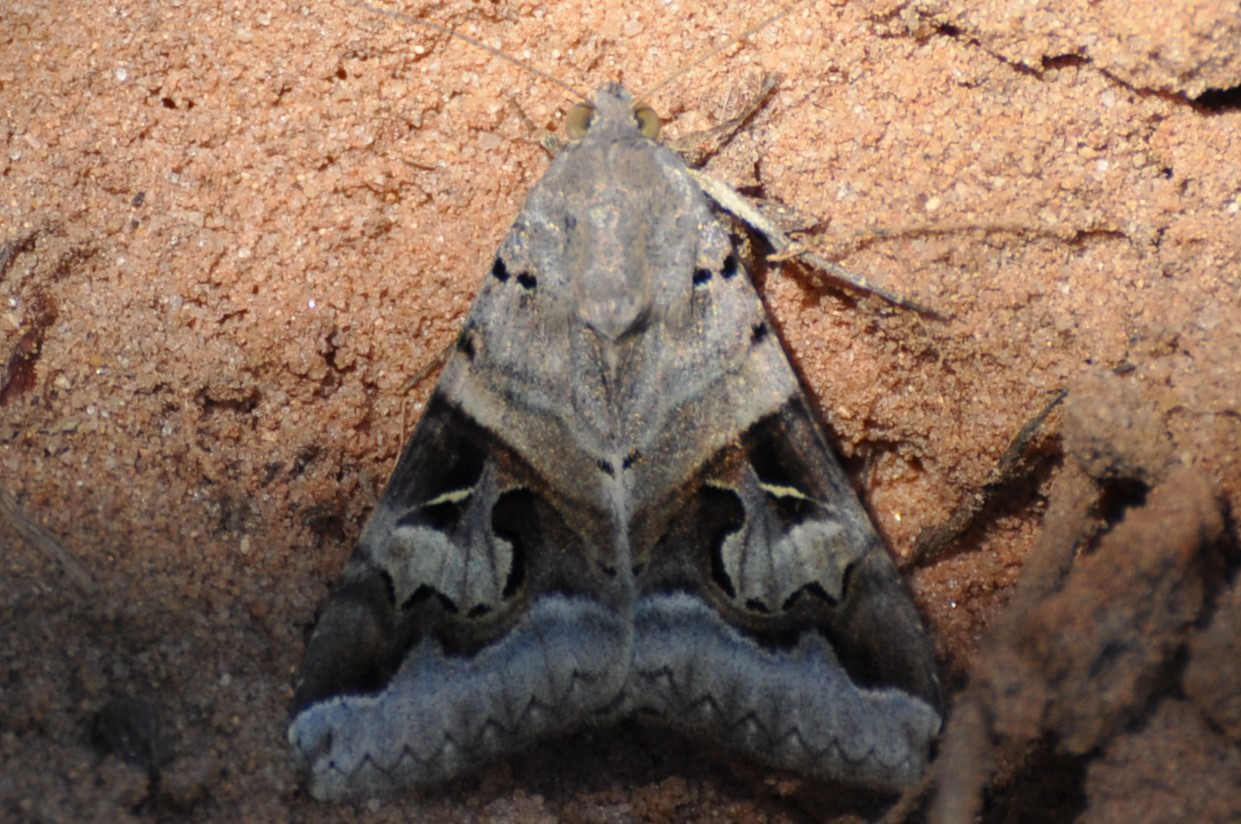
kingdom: Animalia
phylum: Arthropoda
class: Insecta
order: Lepidoptera
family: Erebidae
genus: Melipotis
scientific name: Melipotis indomita
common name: Moth
